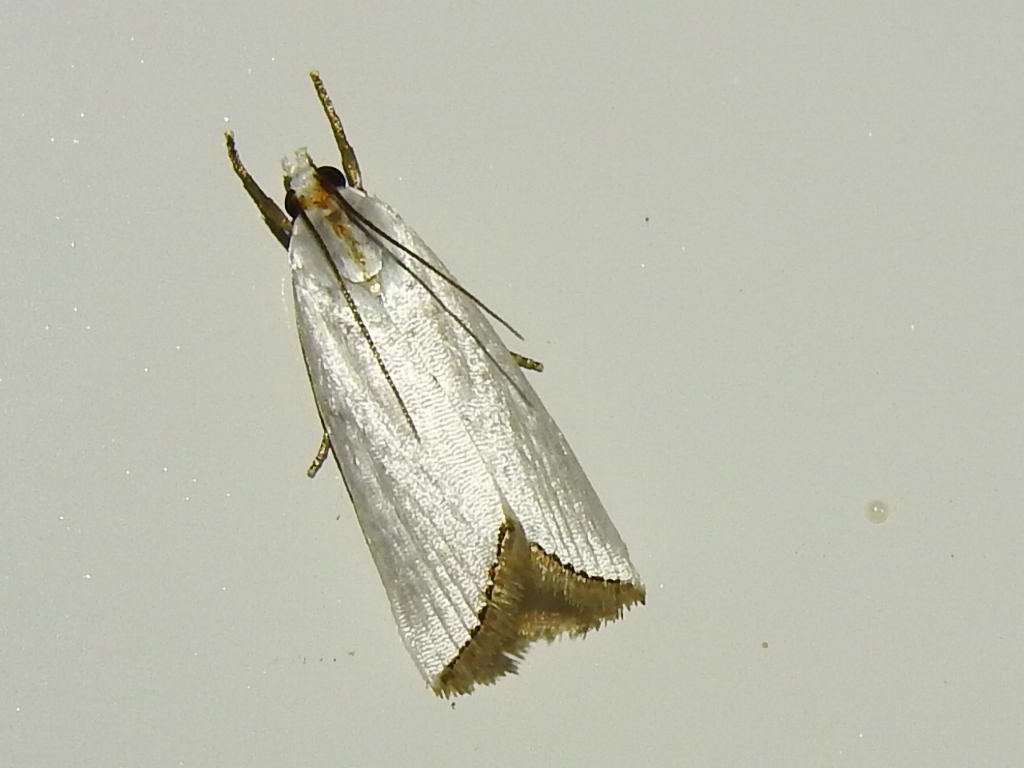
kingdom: Animalia
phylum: Arthropoda
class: Insecta
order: Lepidoptera
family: Crambidae
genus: Argyria
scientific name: Argyria nivalis
